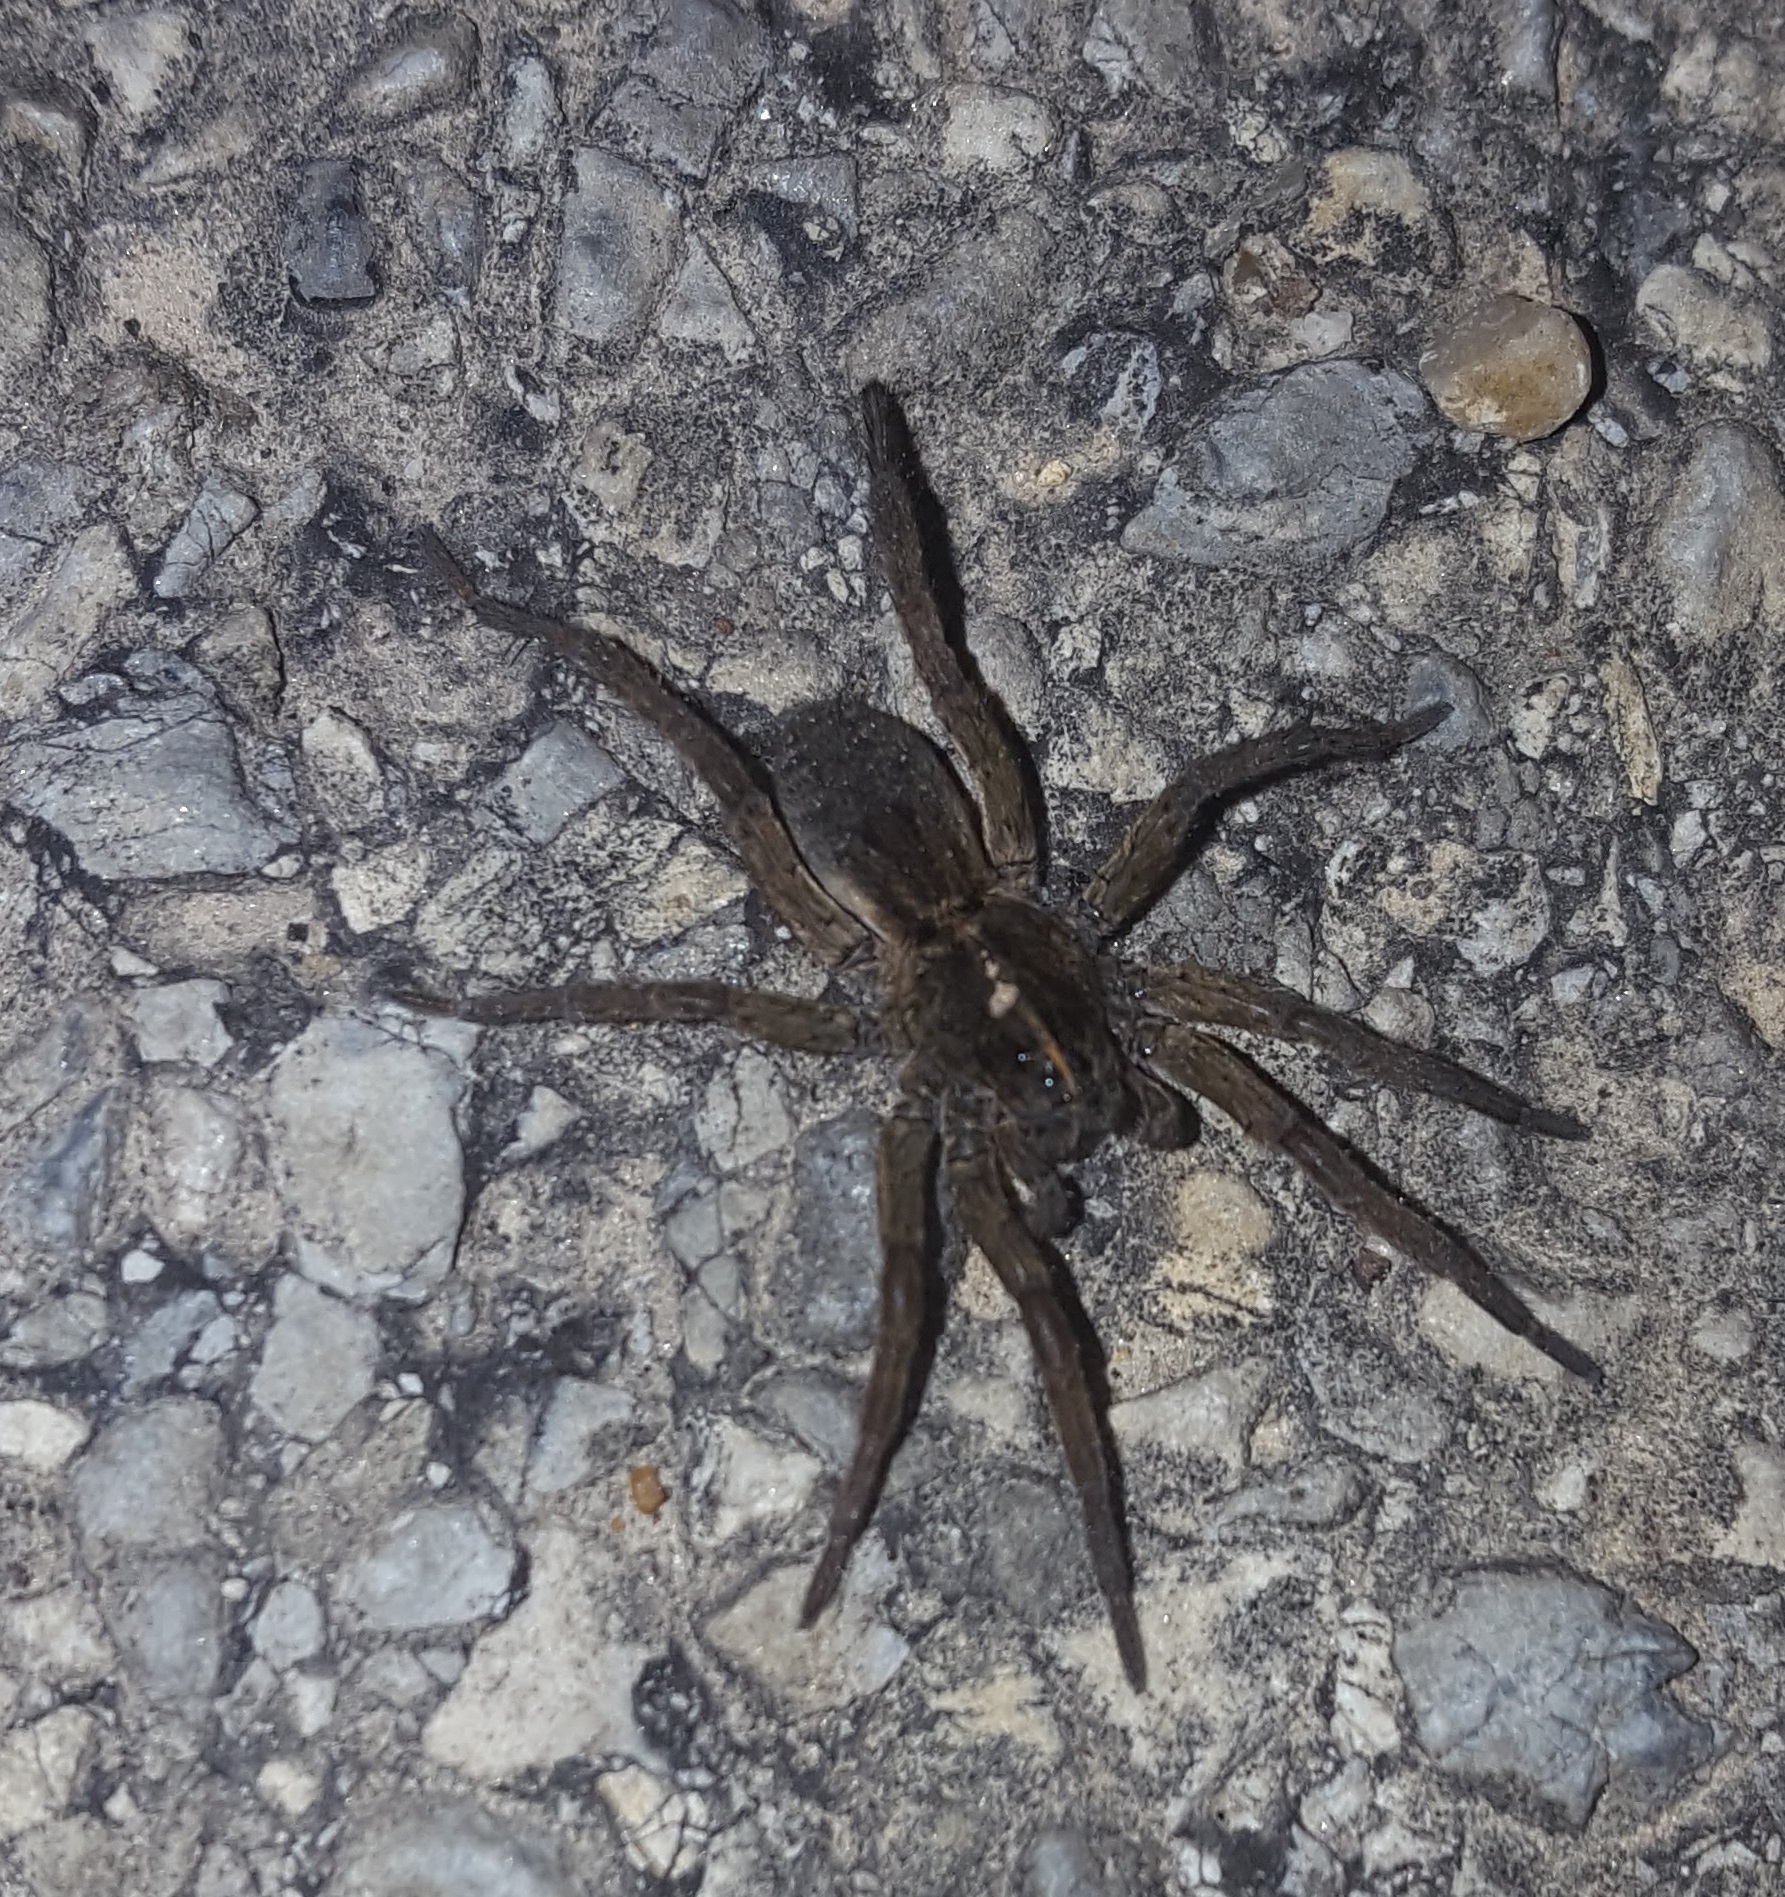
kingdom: Animalia
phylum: Arthropoda
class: Arachnida
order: Araneae
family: Lycosidae
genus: Tigrosa
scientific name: Tigrosa helluo
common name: Wetland giant wolf spider
